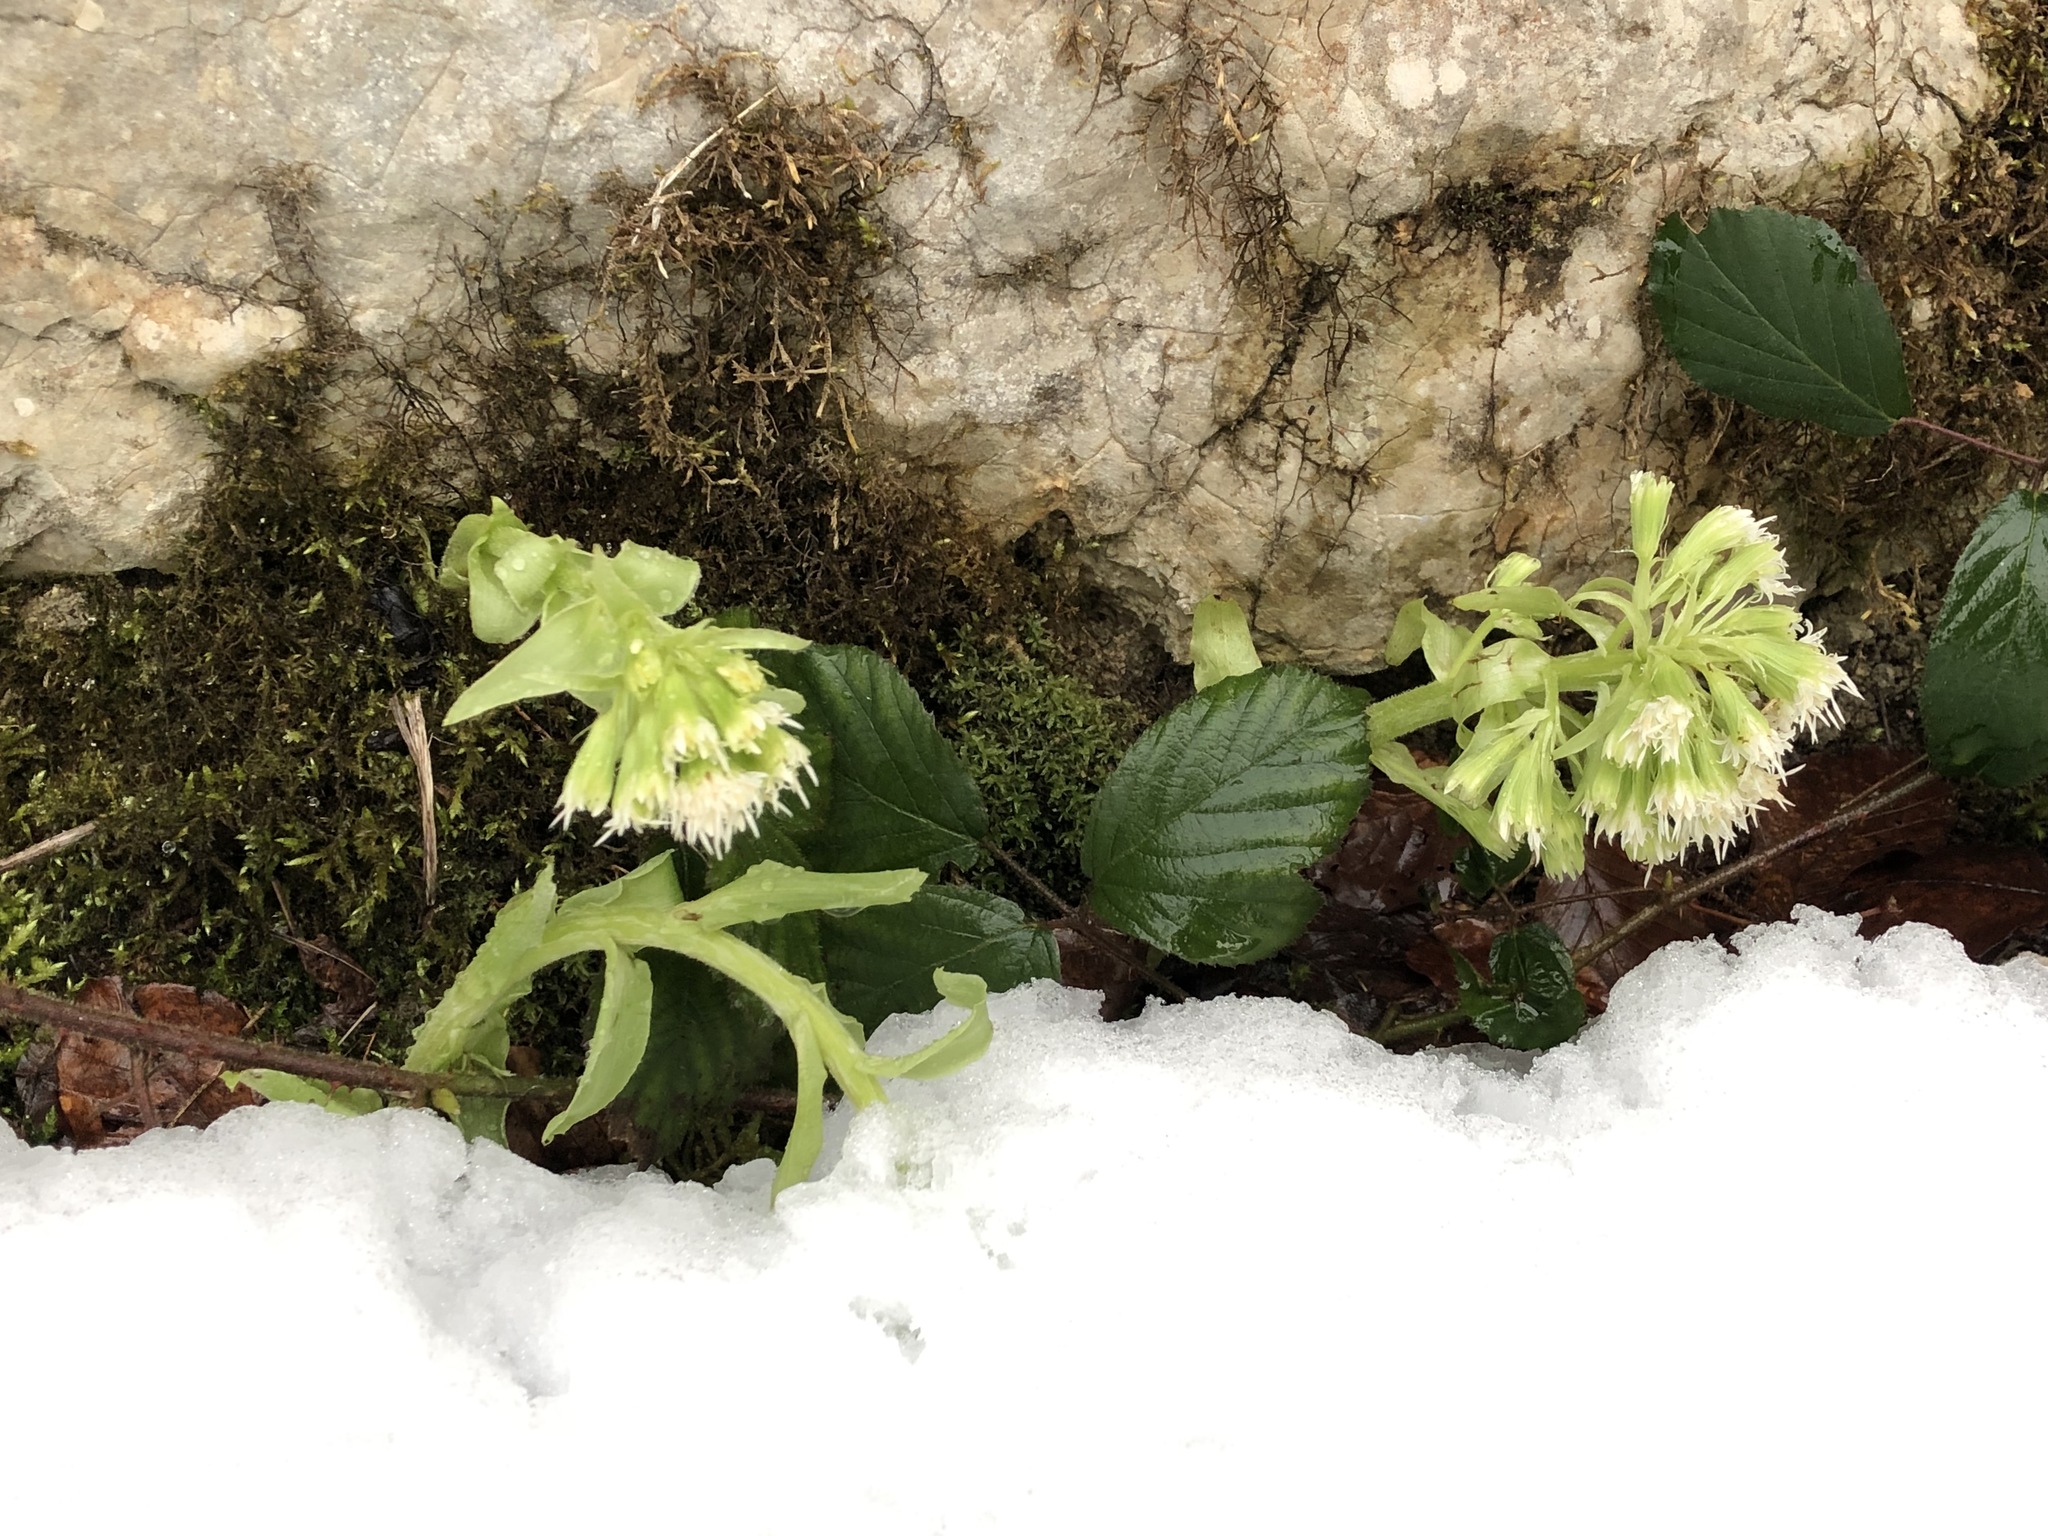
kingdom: Plantae
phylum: Tracheophyta
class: Magnoliopsida
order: Asterales
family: Asteraceae
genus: Petasites
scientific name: Petasites albus
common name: White butterbur
